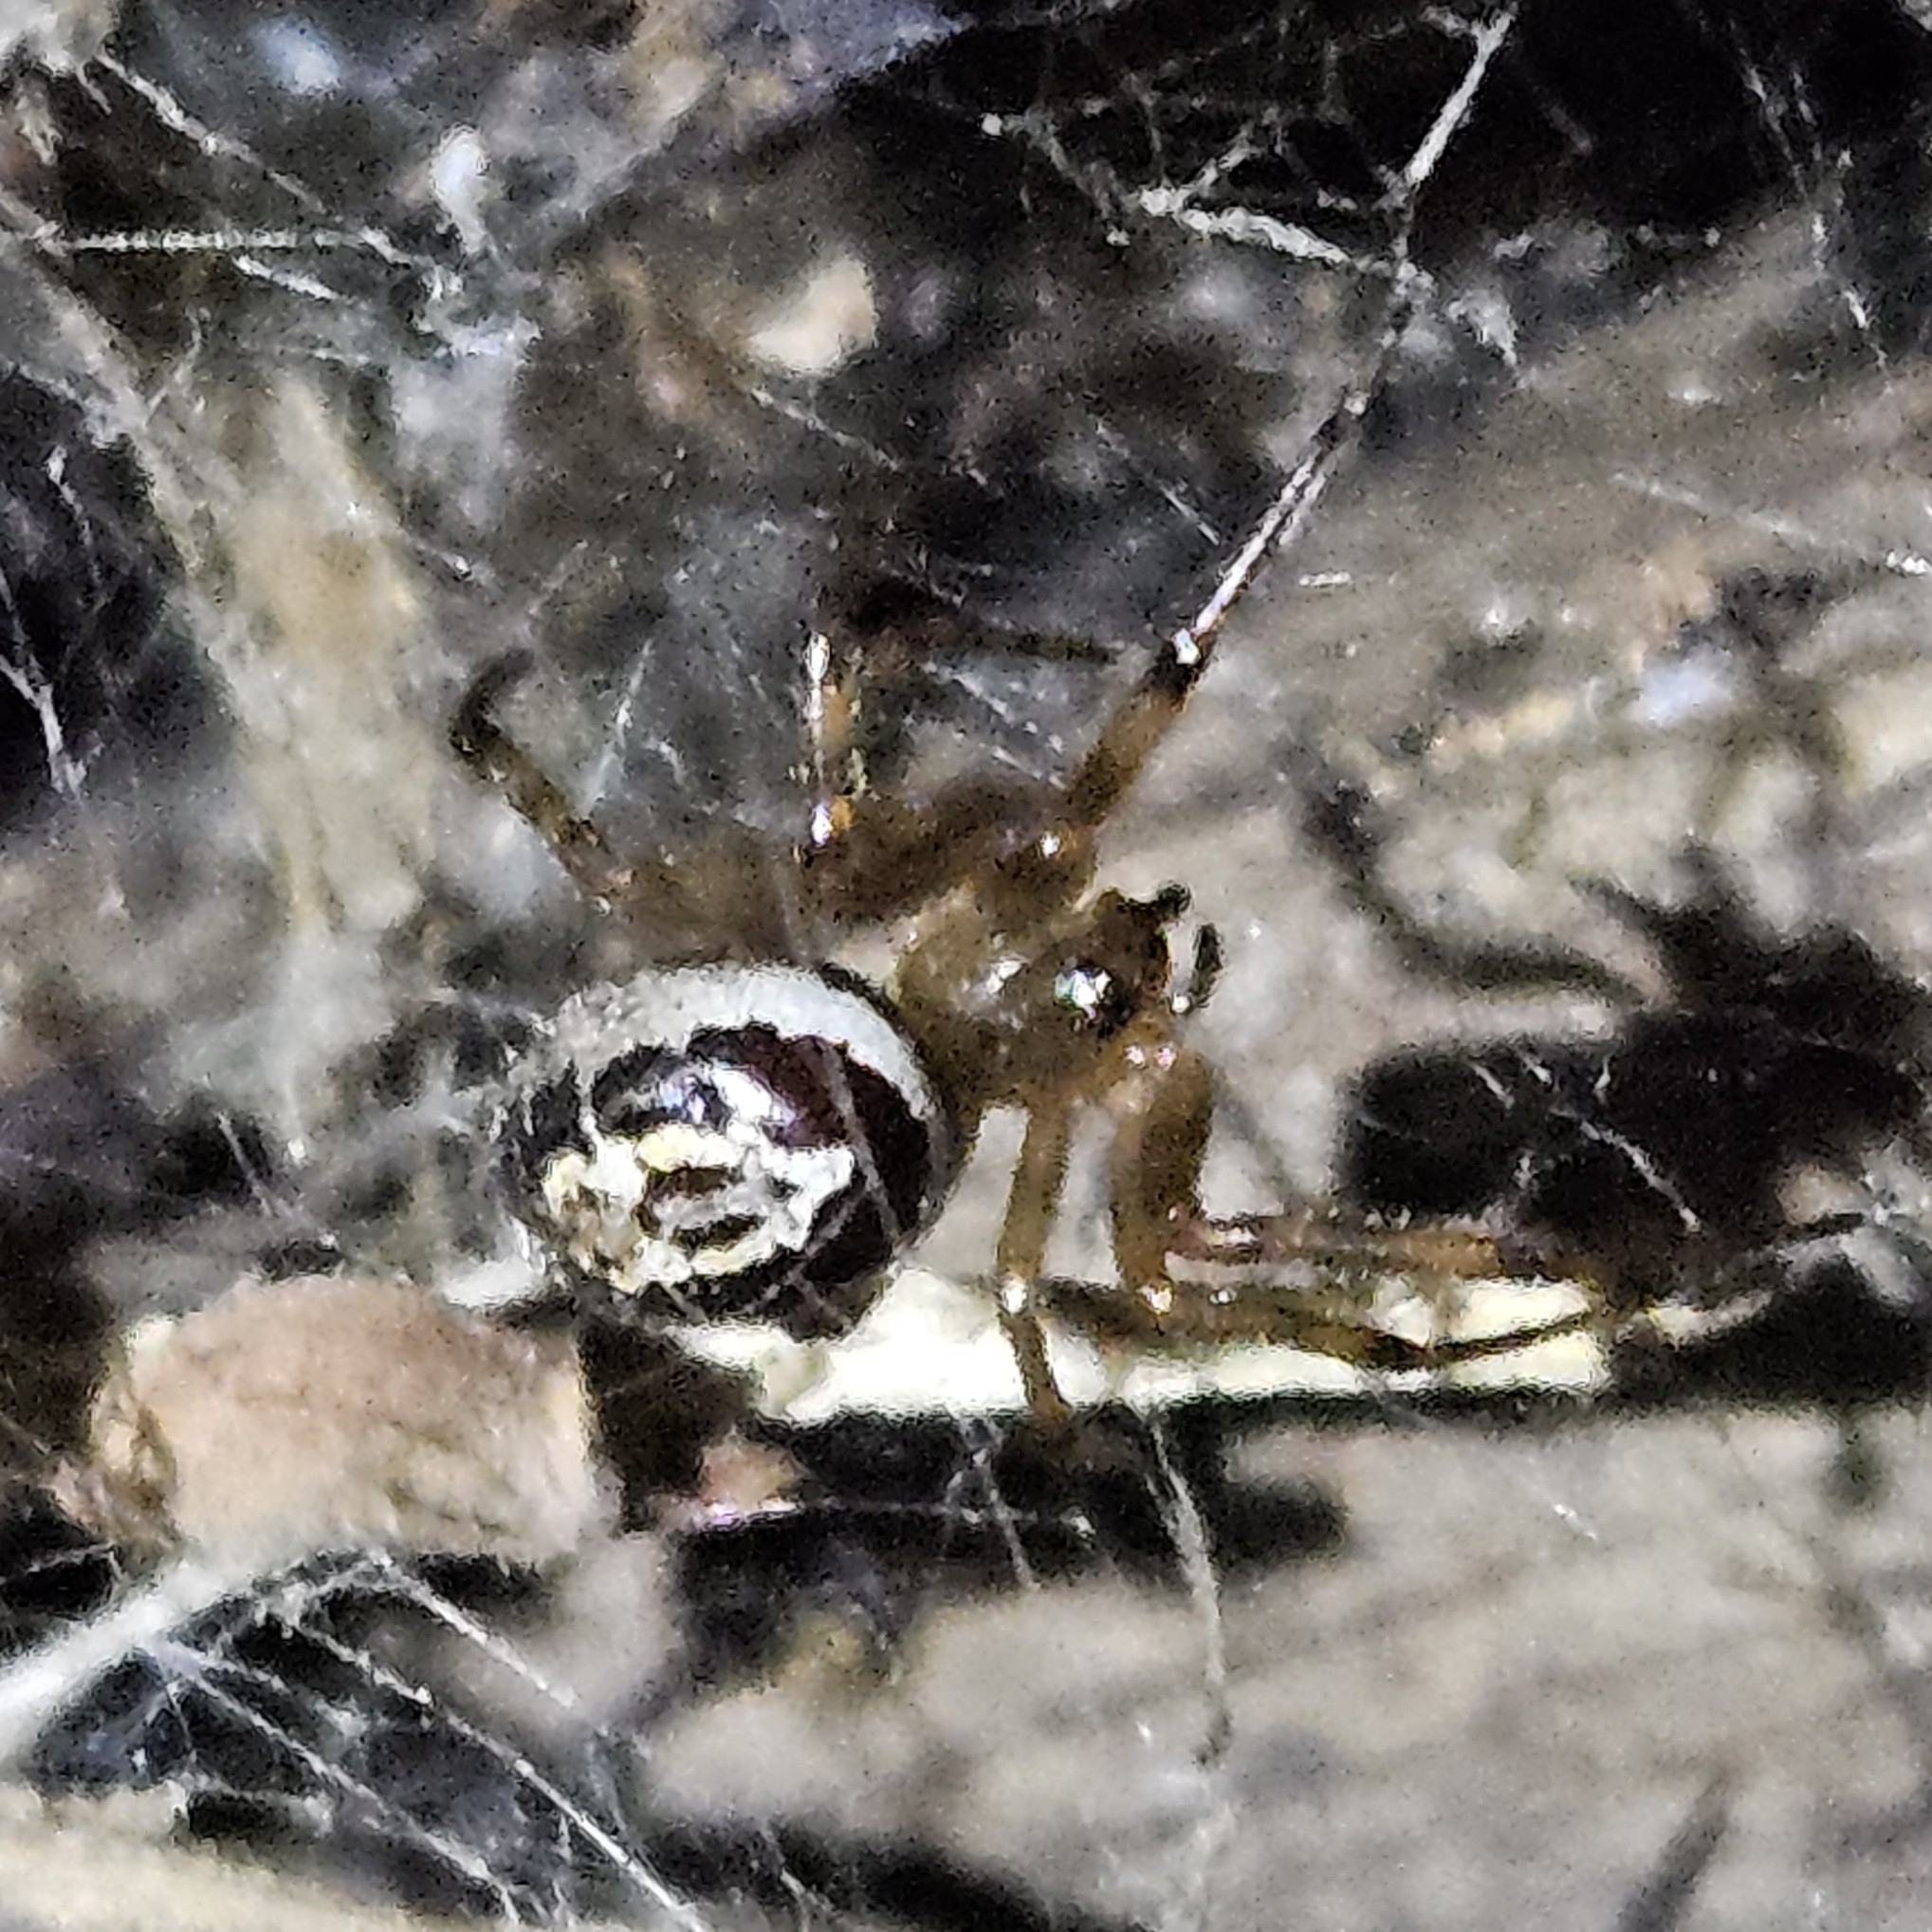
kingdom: Animalia
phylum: Arthropoda
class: Arachnida
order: Araneae
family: Theridiidae
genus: Steatoda
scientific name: Steatoda nobilis
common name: Cobweb weaver
